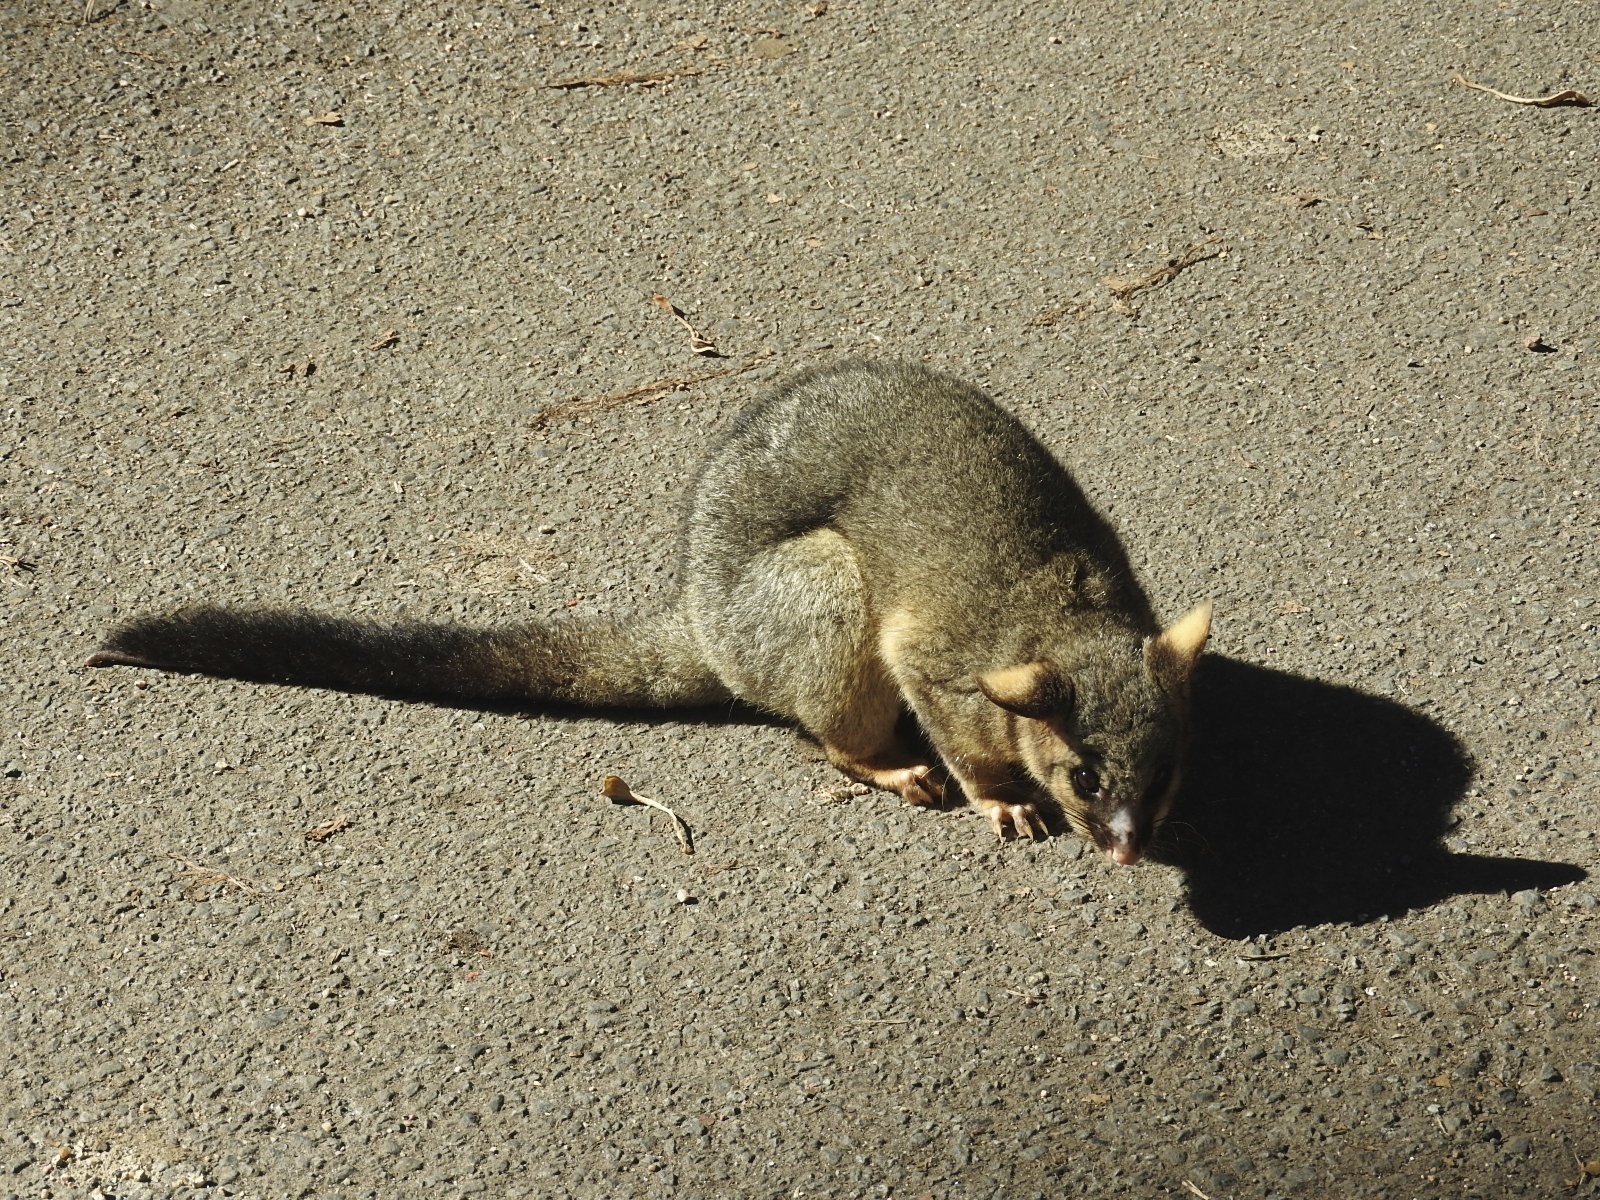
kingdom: Animalia
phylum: Chordata
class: Mammalia
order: Diprotodontia
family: Phalangeridae
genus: Trichosurus
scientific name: Trichosurus vulpecula
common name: Common brushtail
